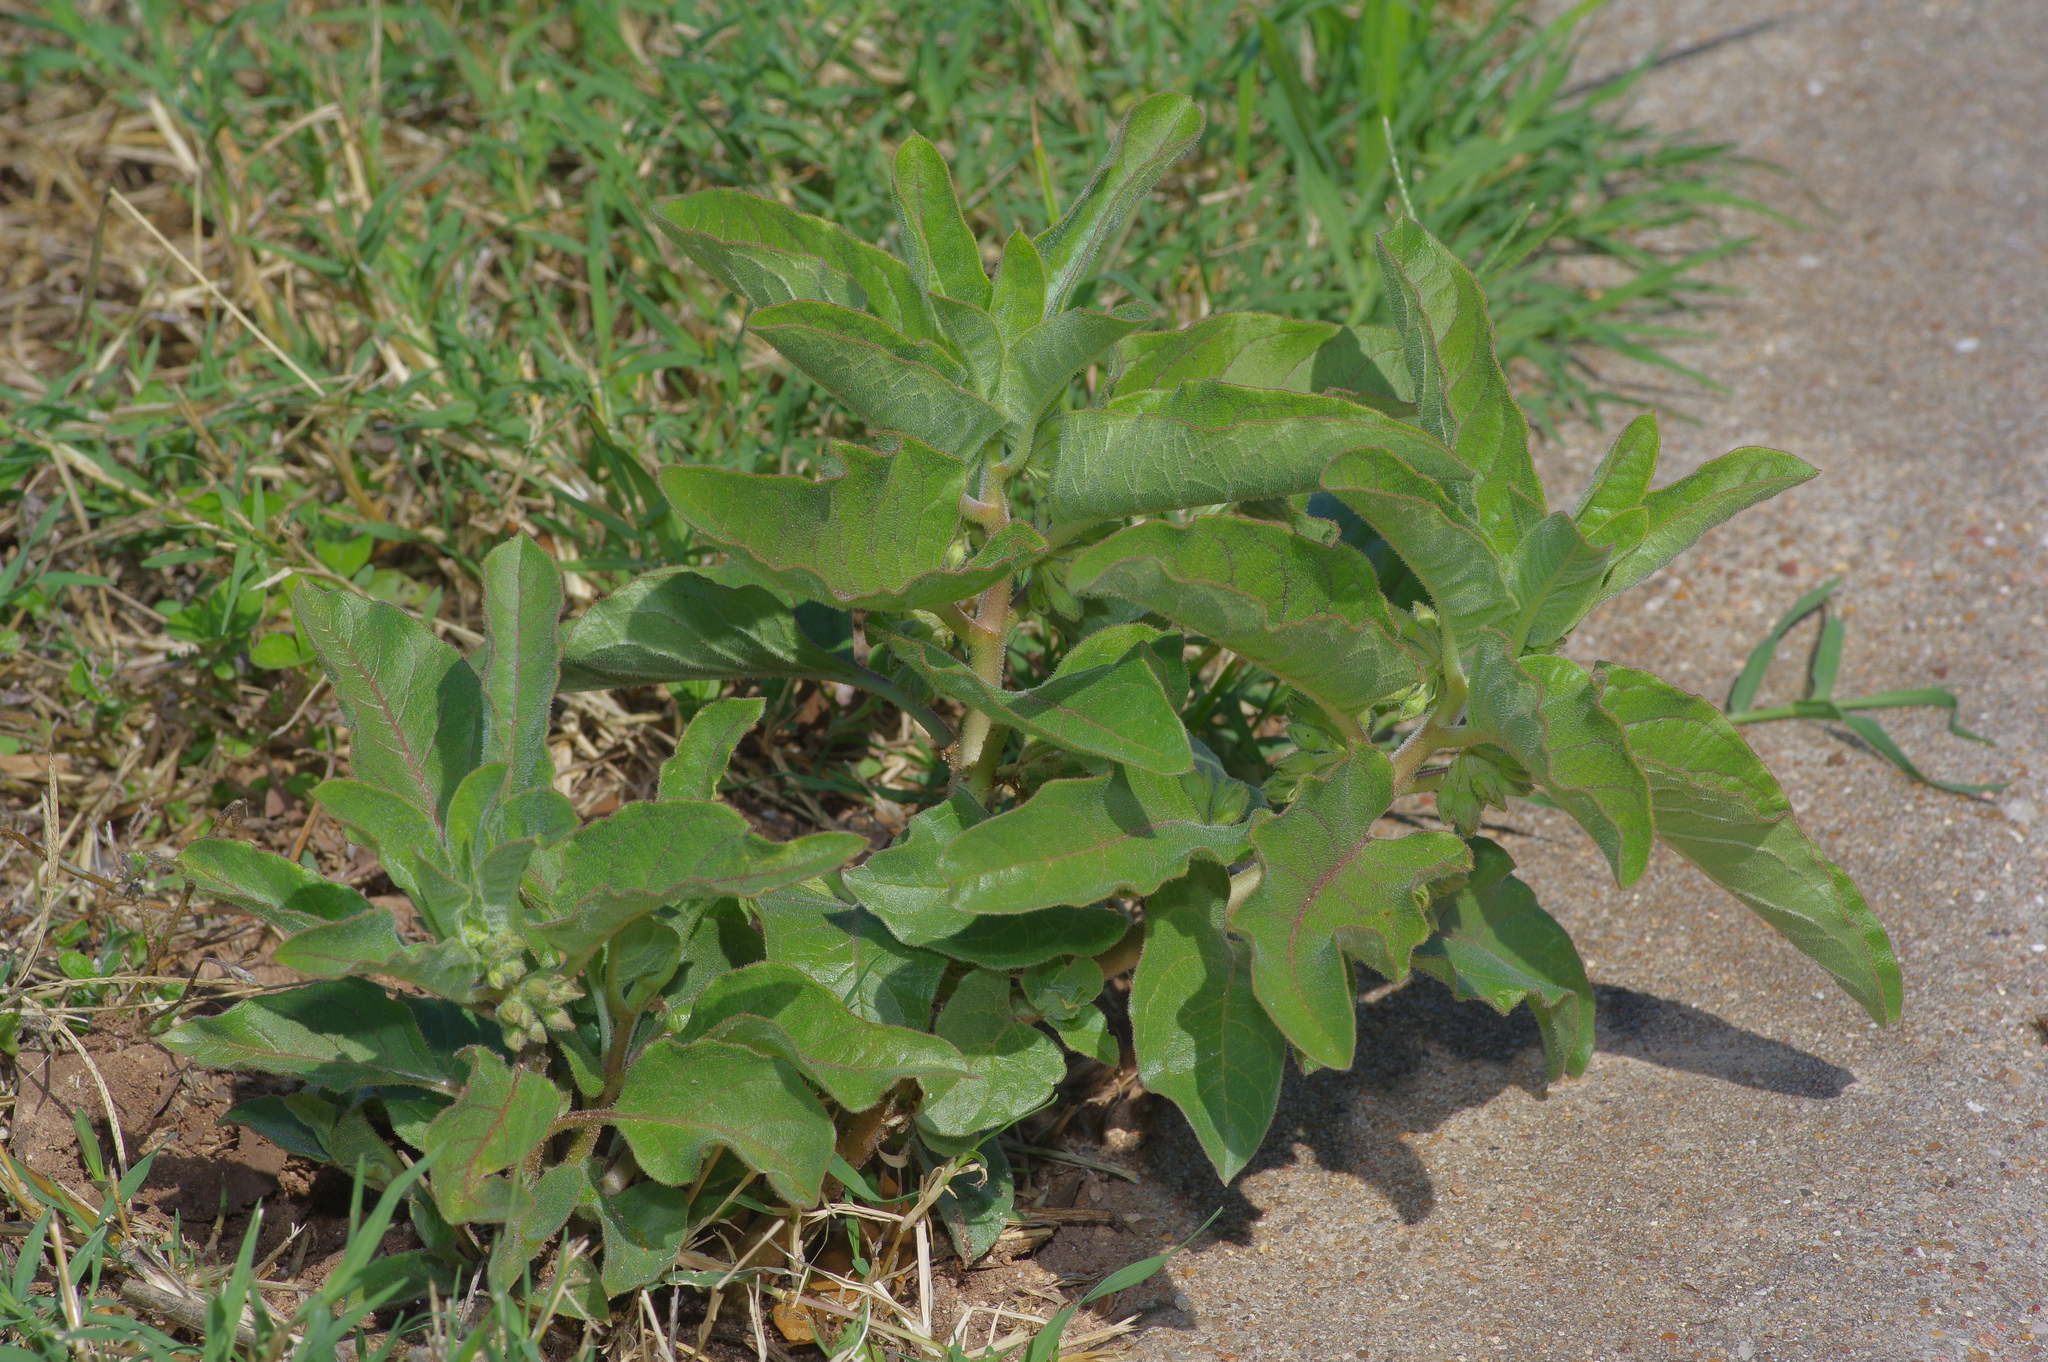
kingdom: Plantae
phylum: Tracheophyta
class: Magnoliopsida
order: Gentianales
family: Apocynaceae
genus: Asclepias
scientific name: Asclepias oenotheroides
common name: Zizotes milkweed
